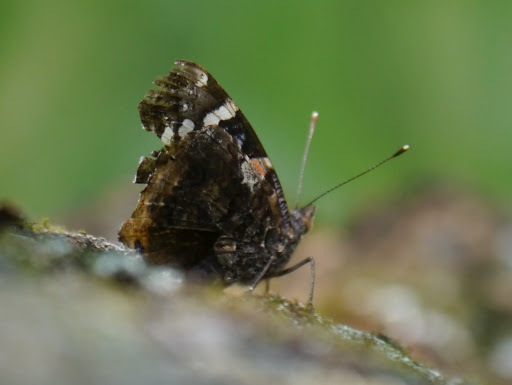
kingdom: Animalia
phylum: Arthropoda
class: Insecta
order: Lepidoptera
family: Nymphalidae
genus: Vanessa
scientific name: Vanessa atalanta
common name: Red admiral
